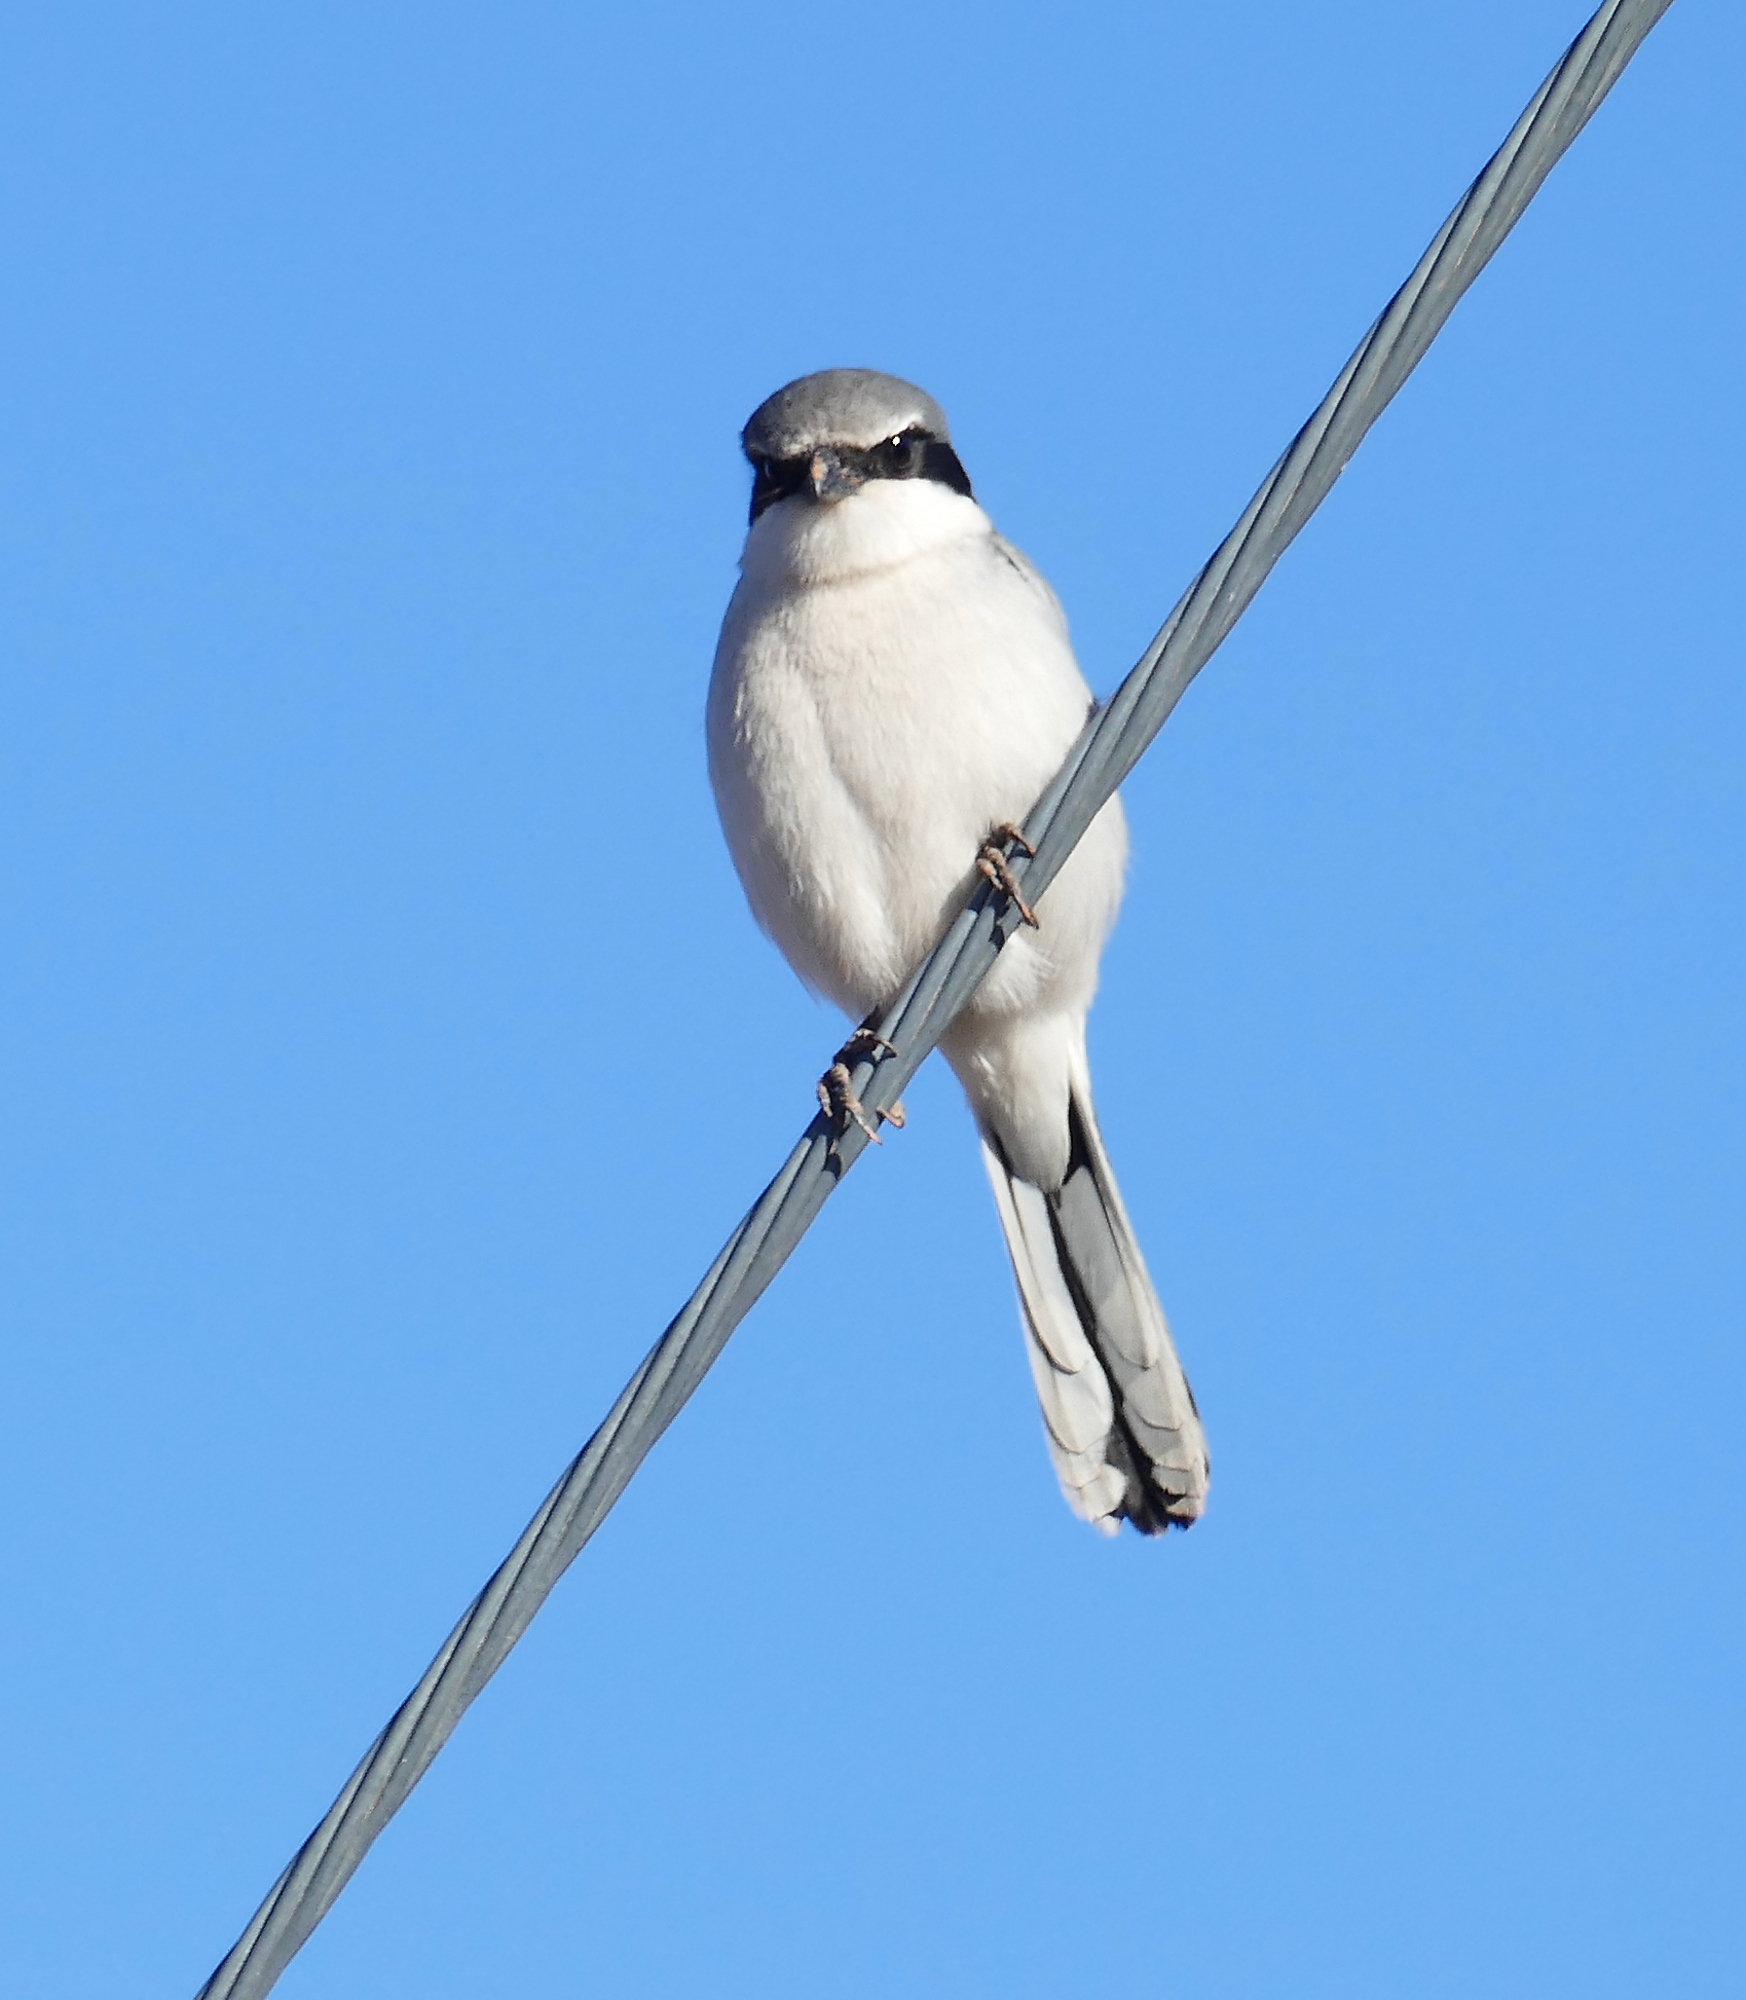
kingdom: Animalia
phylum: Chordata
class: Aves
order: Passeriformes
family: Laniidae
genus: Lanius
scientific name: Lanius ludovicianus
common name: Loggerhead shrike
